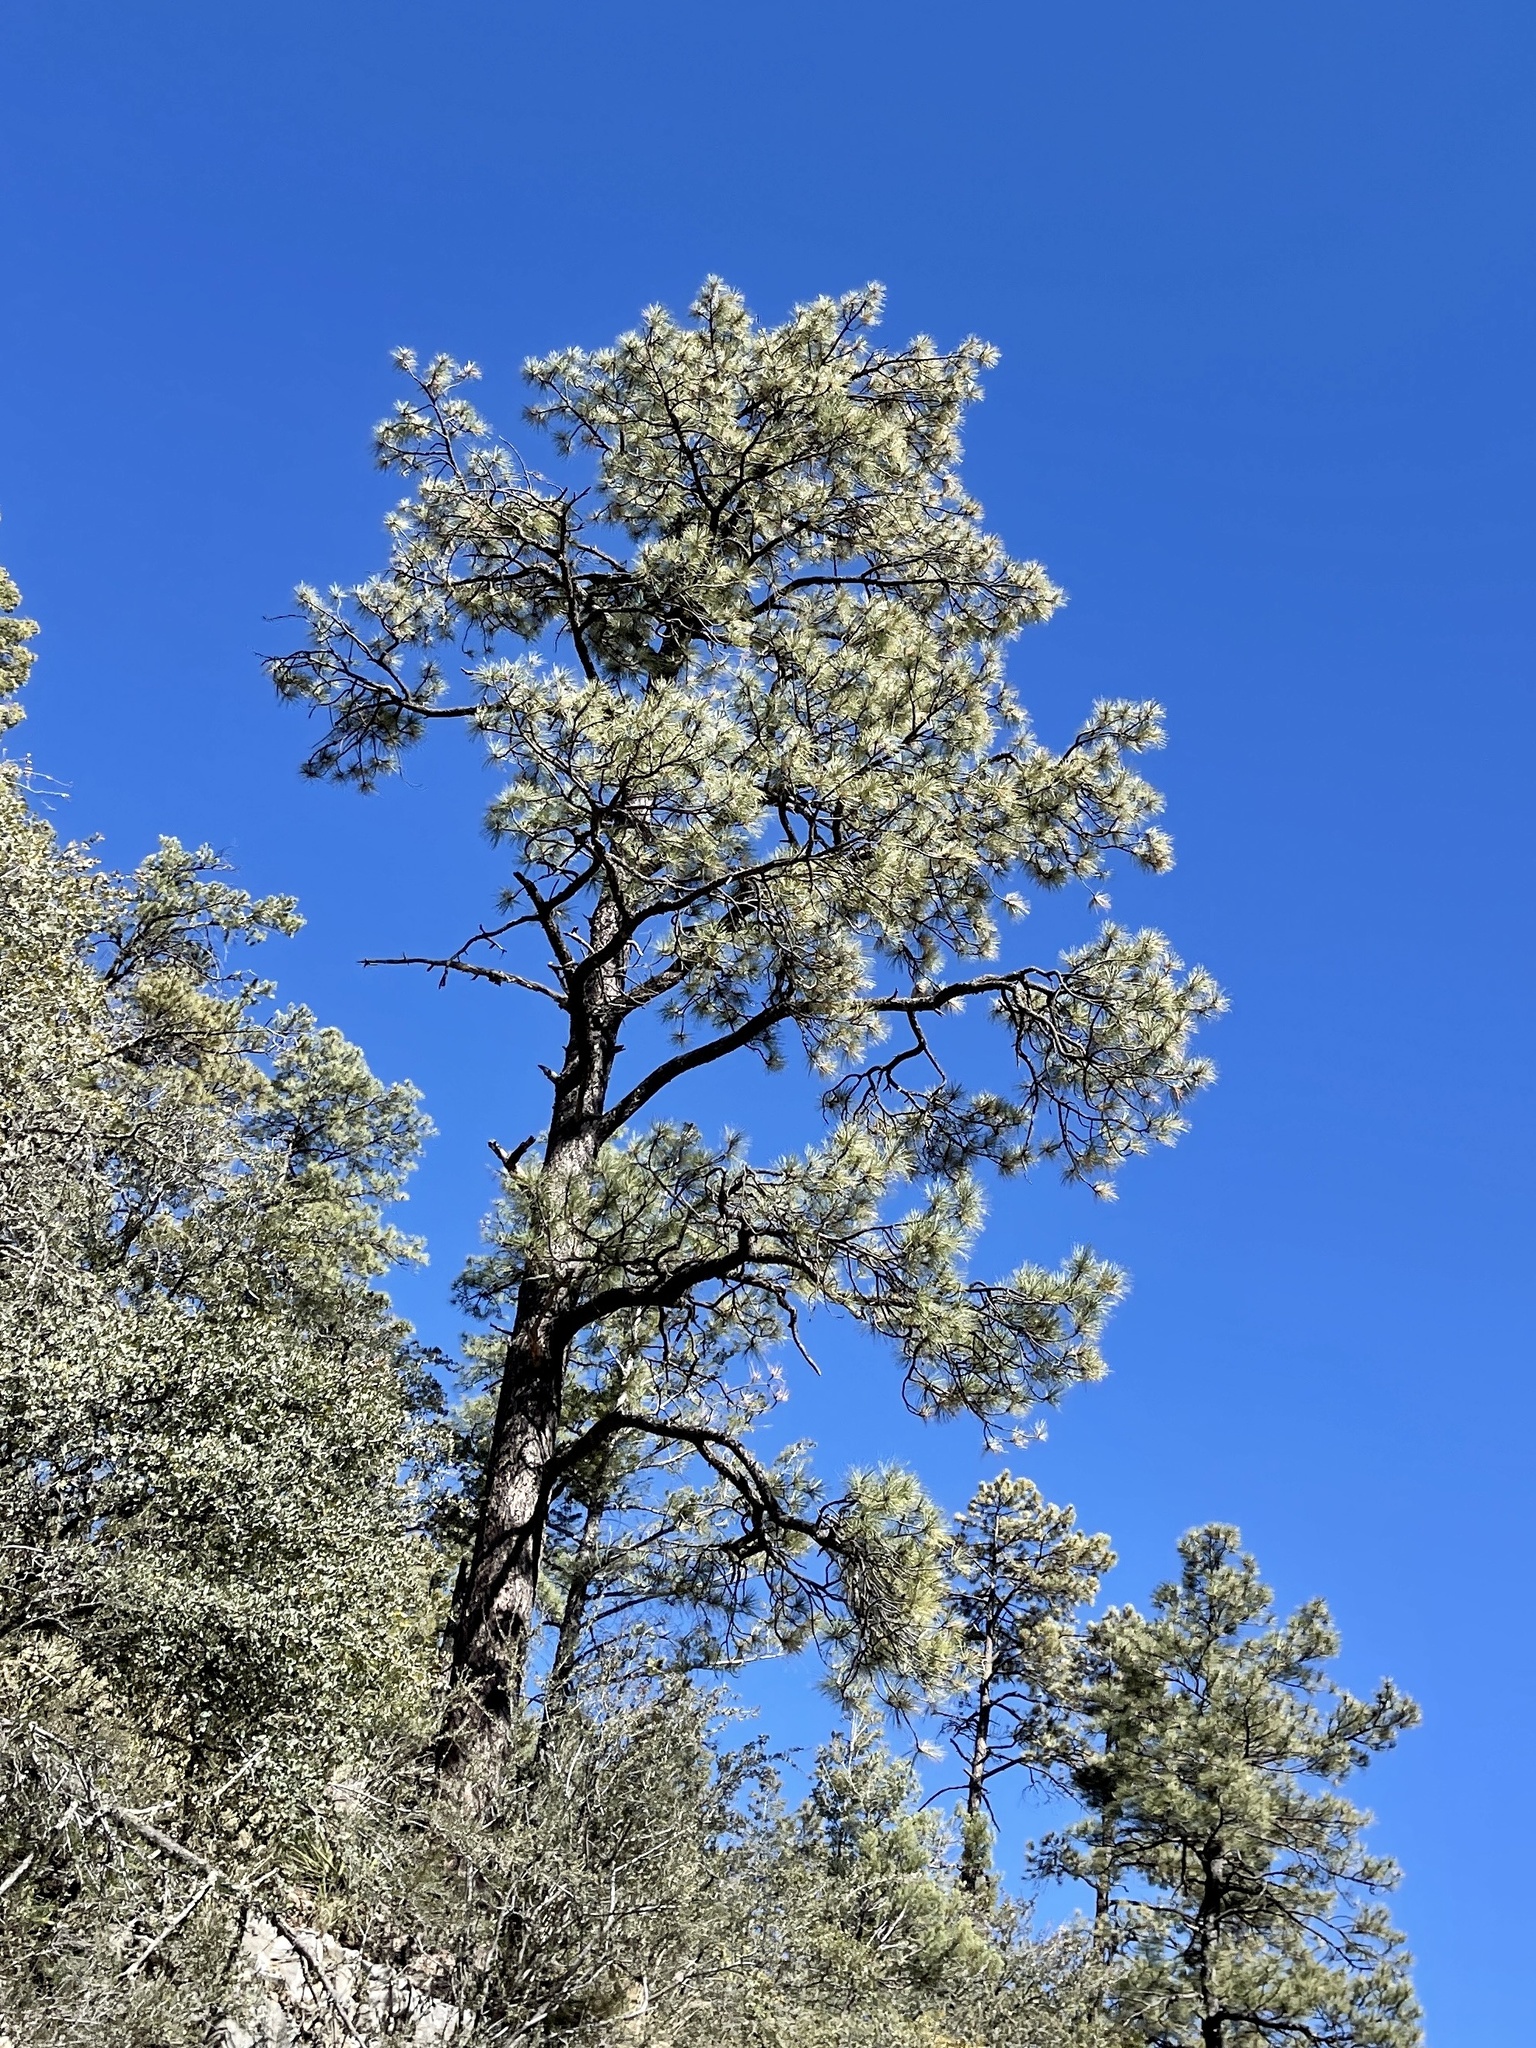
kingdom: Plantae
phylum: Tracheophyta
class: Pinopsida
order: Pinales
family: Pinaceae
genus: Pinus
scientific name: Pinus ponderosa
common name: Western yellow-pine
